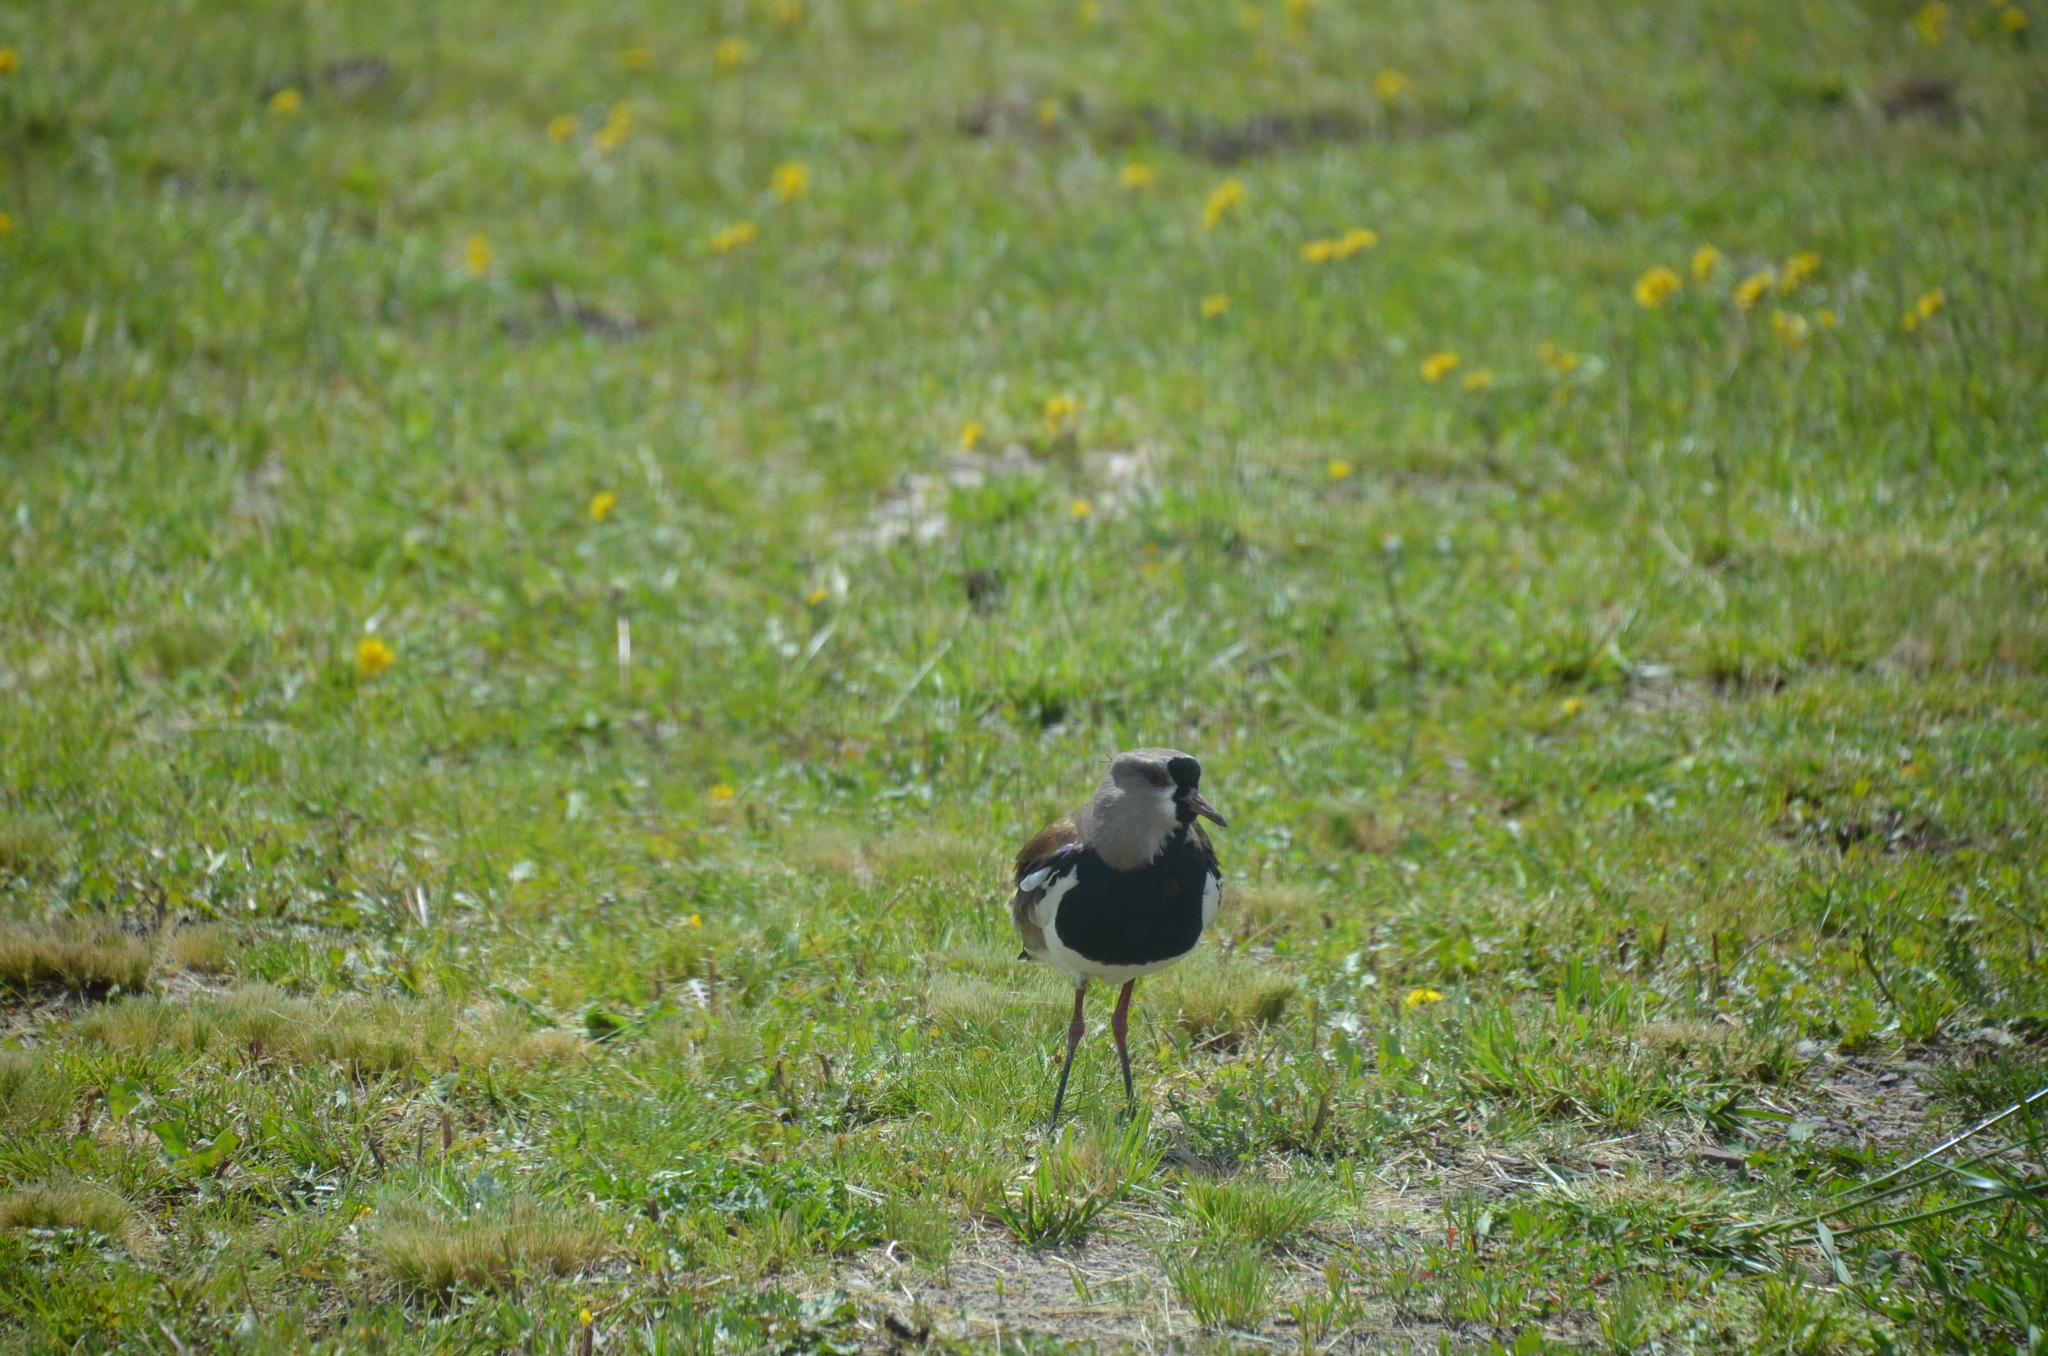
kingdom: Animalia
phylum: Chordata
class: Aves
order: Charadriiformes
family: Charadriidae
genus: Vanellus
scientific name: Vanellus chilensis
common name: Southern lapwing
